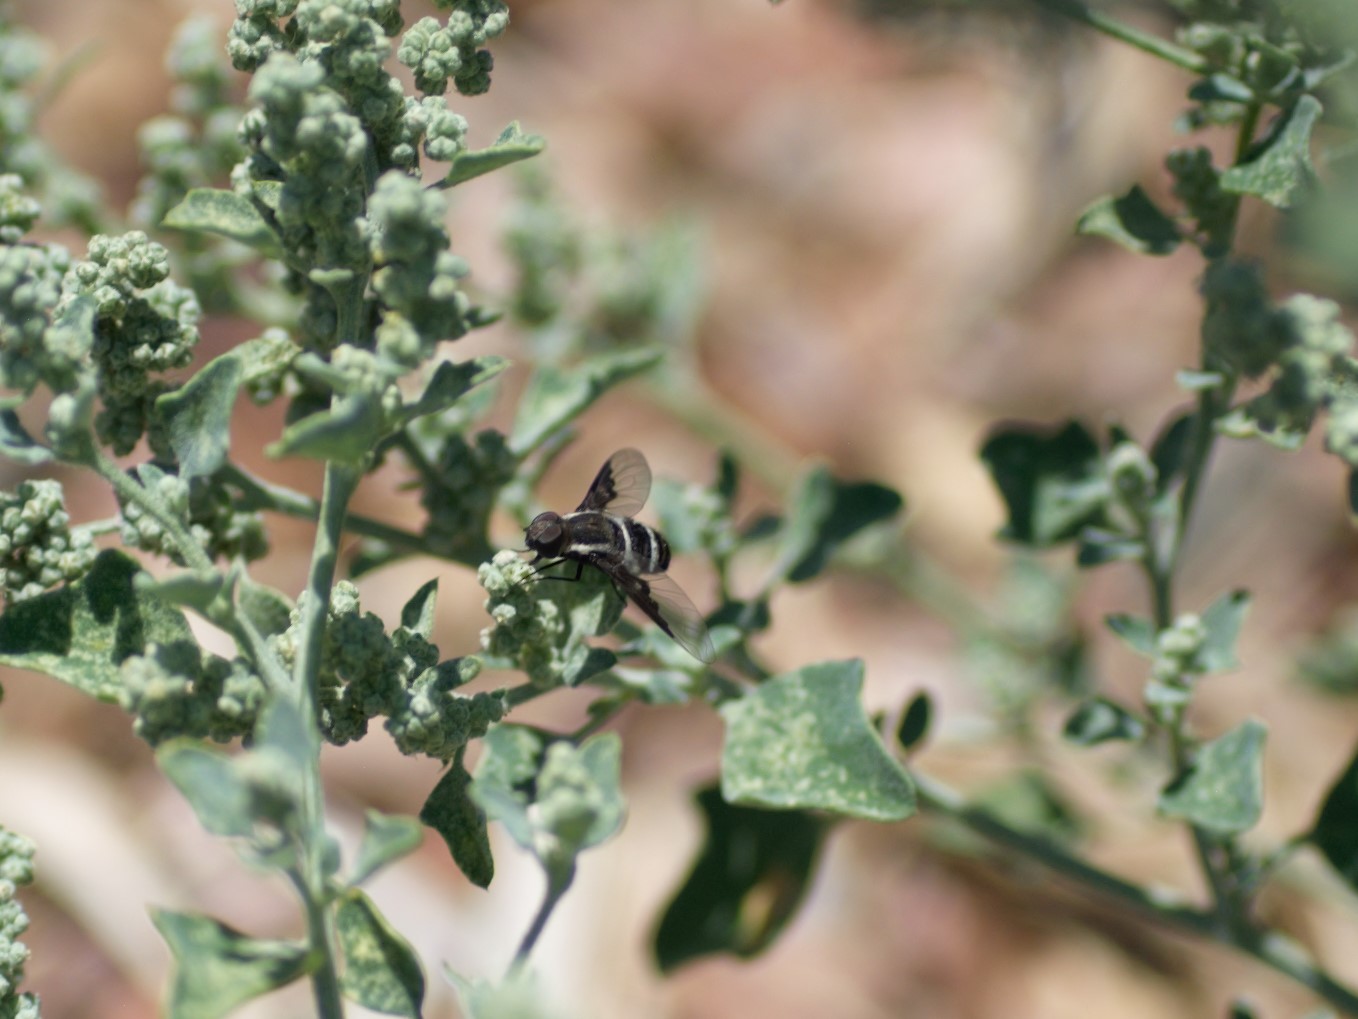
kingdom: Animalia
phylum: Arthropoda
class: Insecta
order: Diptera
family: Bombyliidae
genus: Hemipenthes
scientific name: Hemipenthes lepidotus
